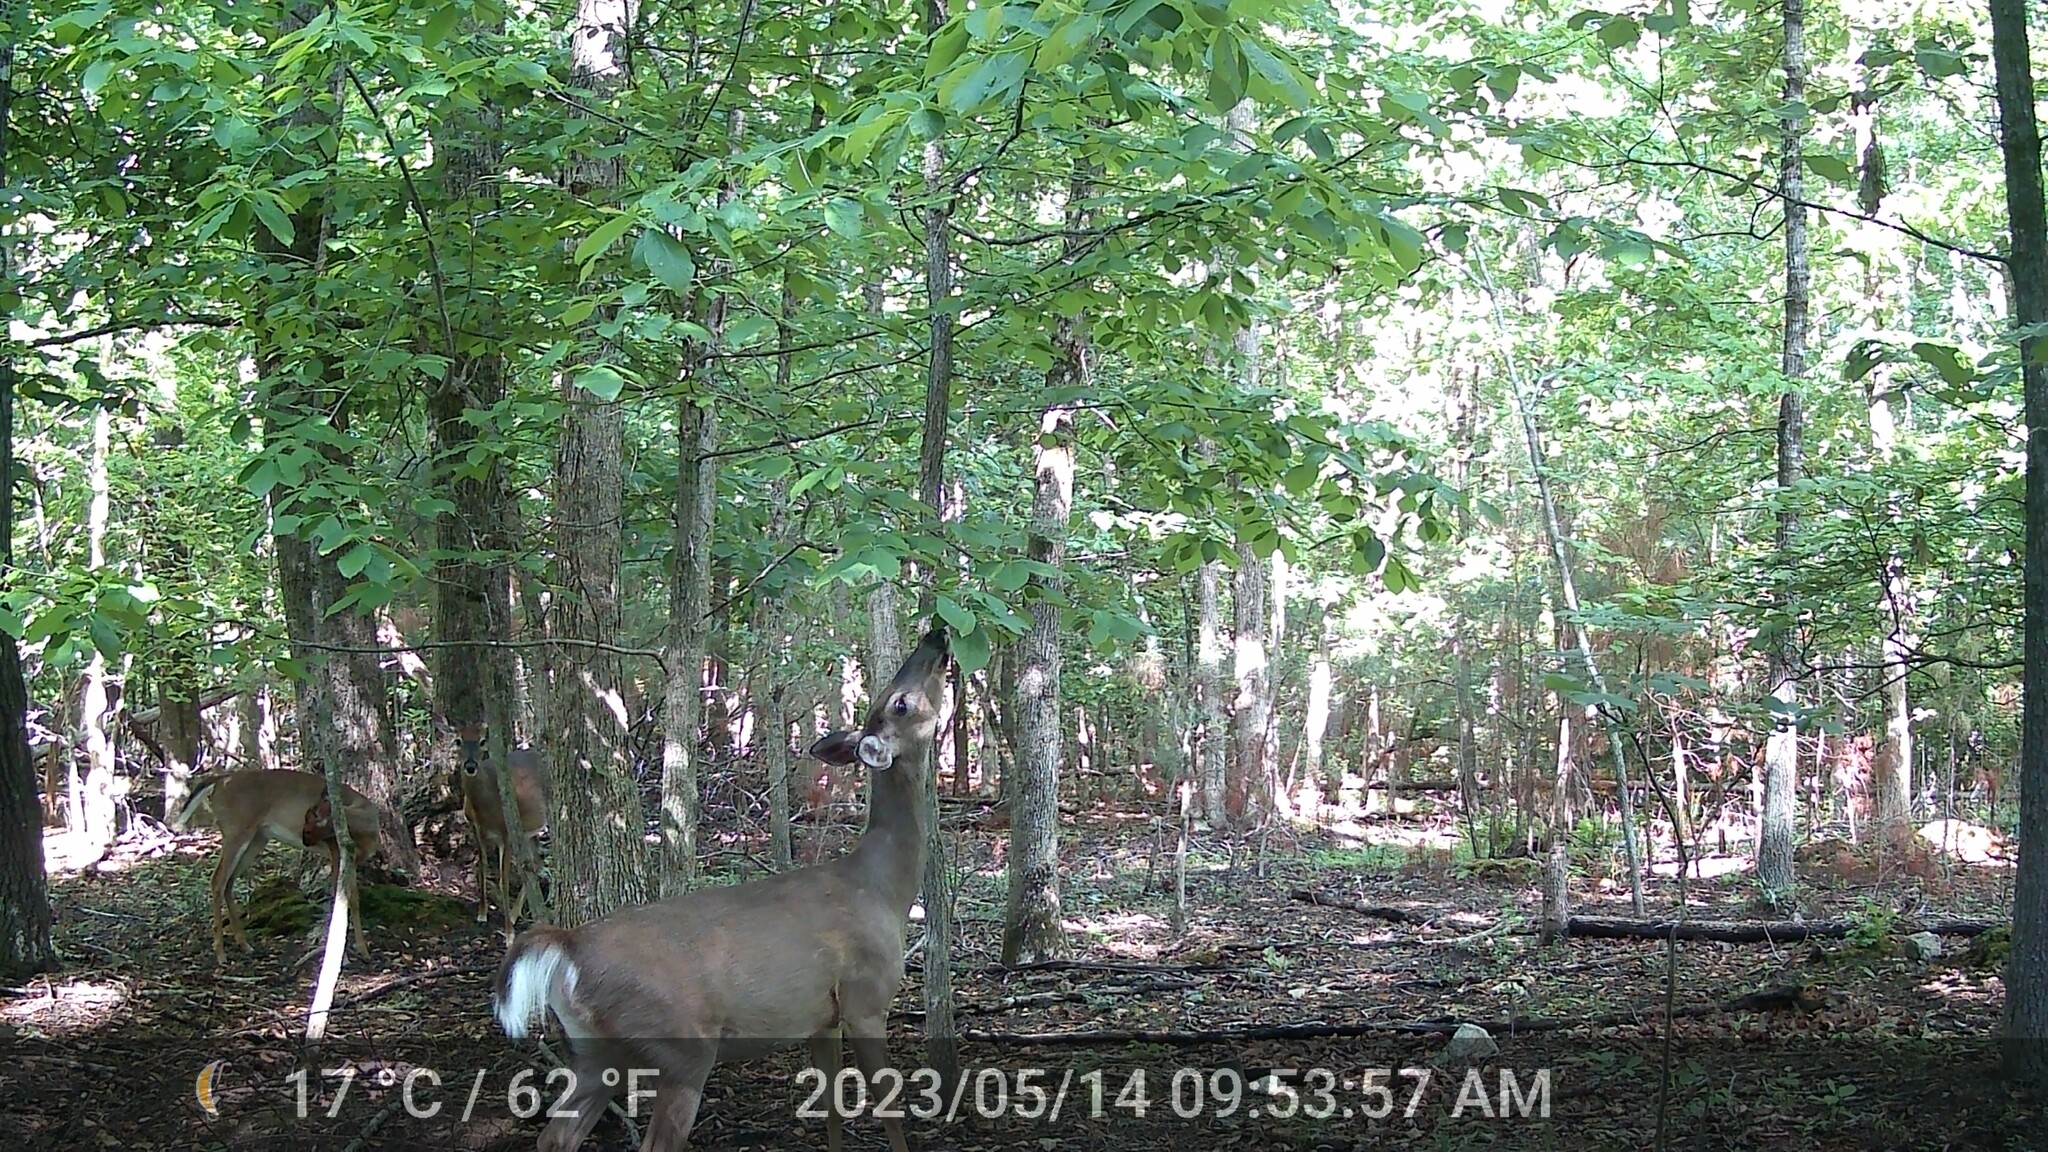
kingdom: Animalia
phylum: Chordata
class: Mammalia
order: Artiodactyla
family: Cervidae
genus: Odocoileus
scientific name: Odocoileus virginianus
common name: White-tailed deer
